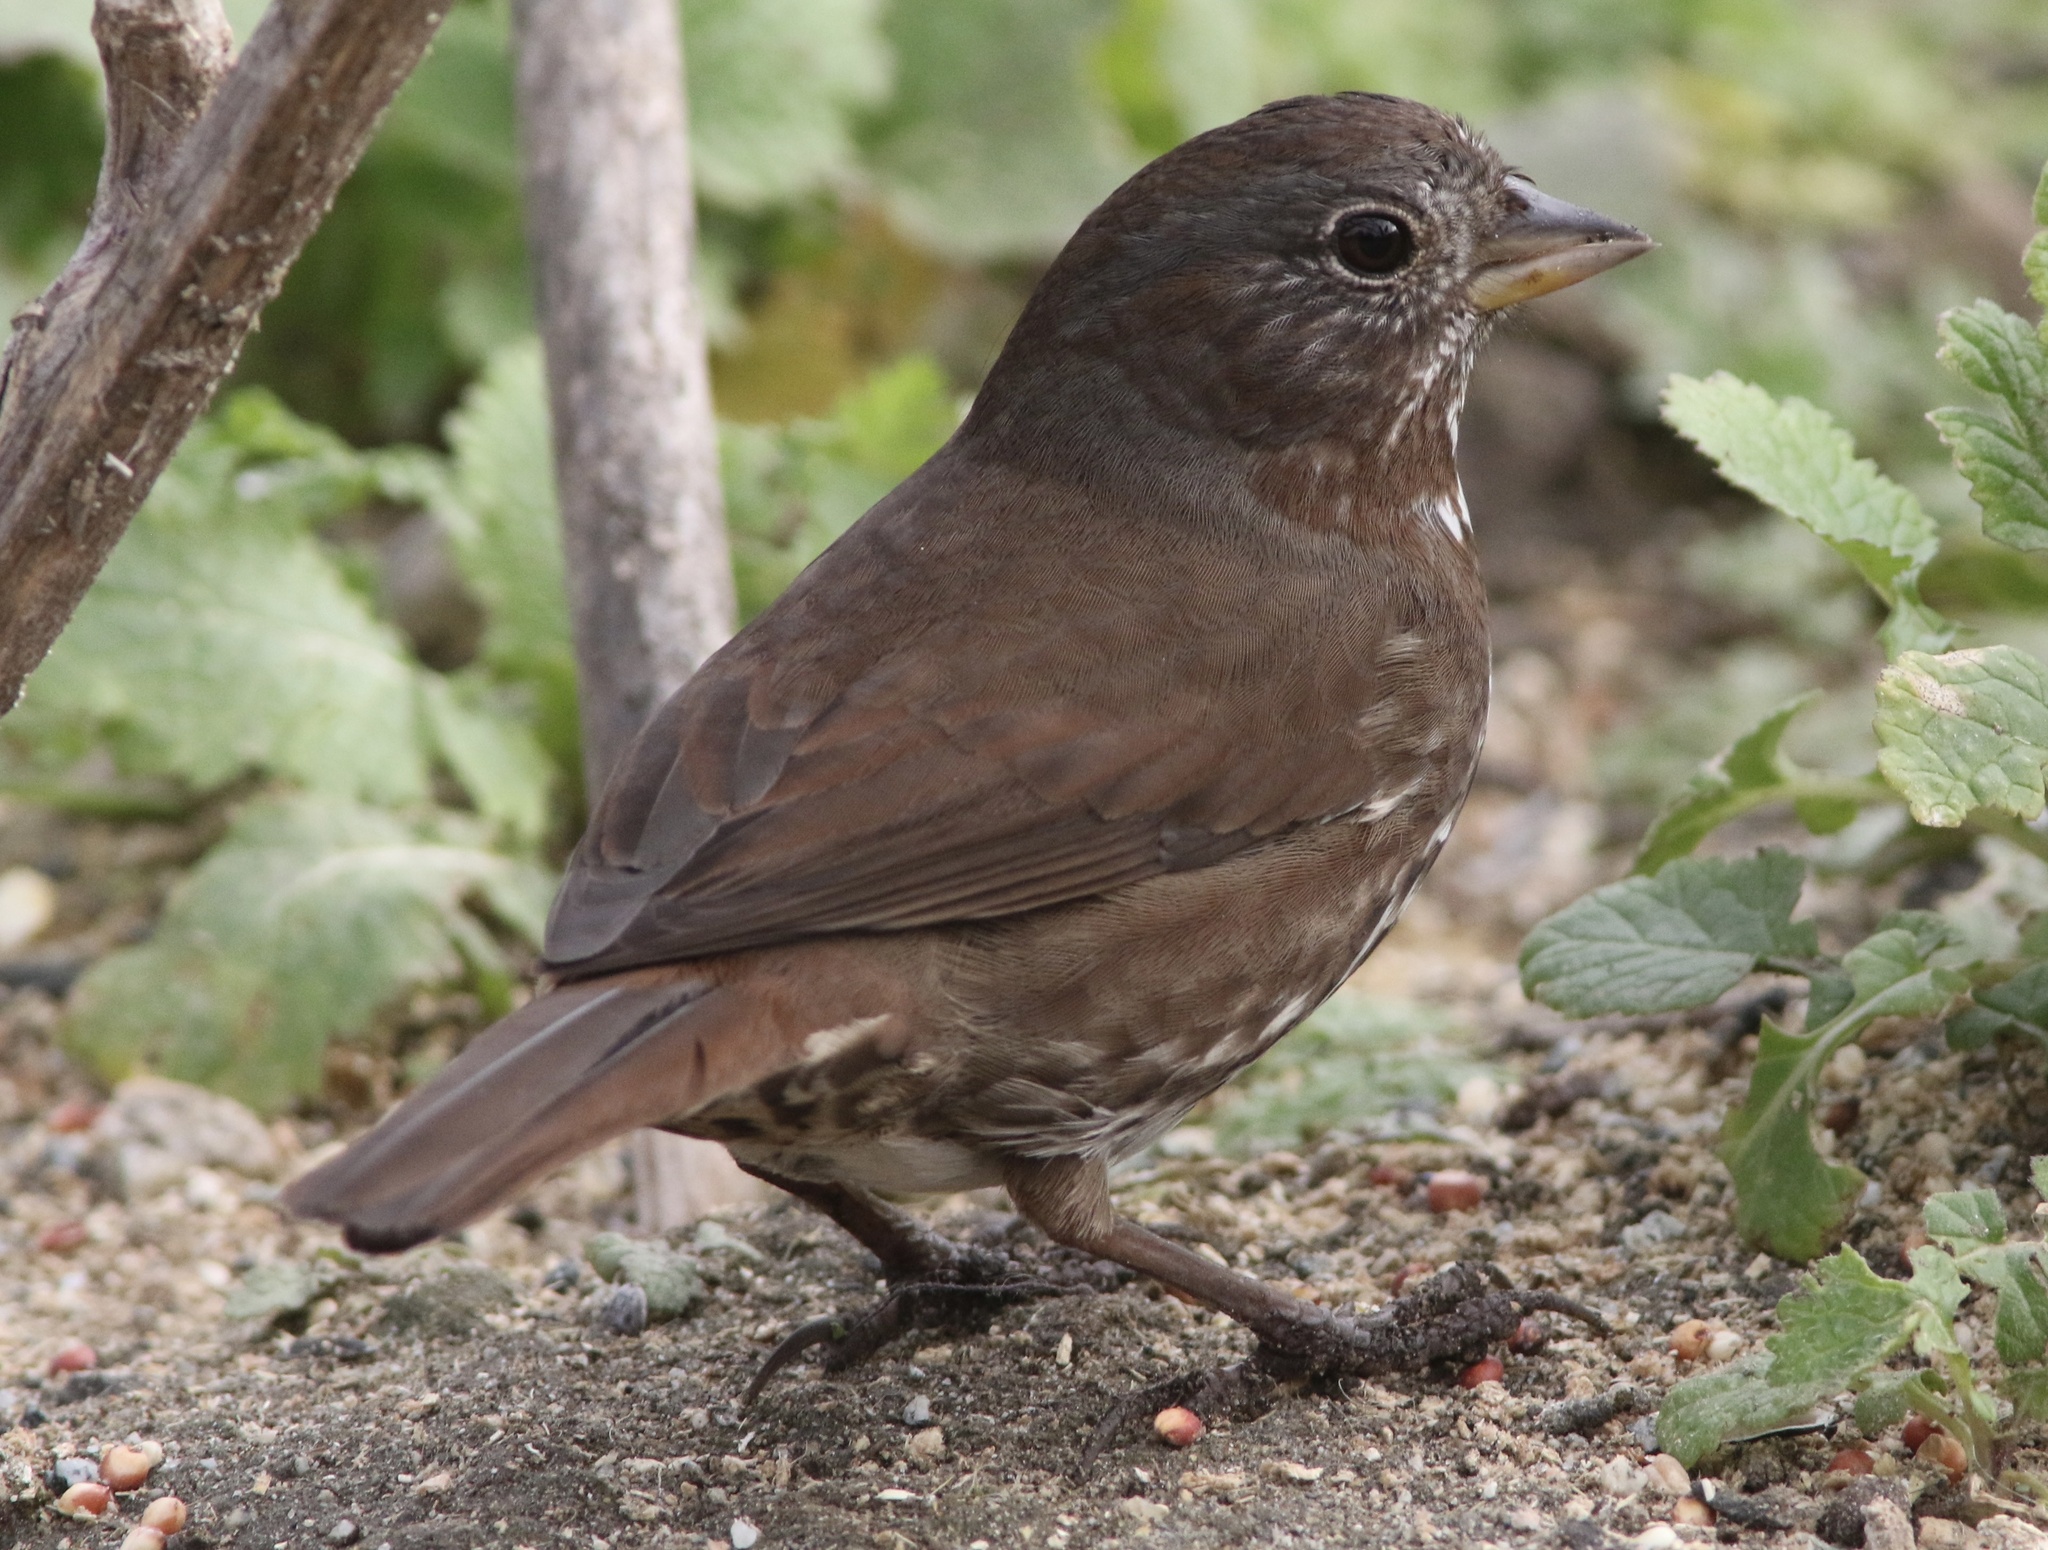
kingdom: Animalia
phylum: Chordata
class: Aves
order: Passeriformes
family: Passerellidae
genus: Passerella
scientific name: Passerella iliaca
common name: Fox sparrow
